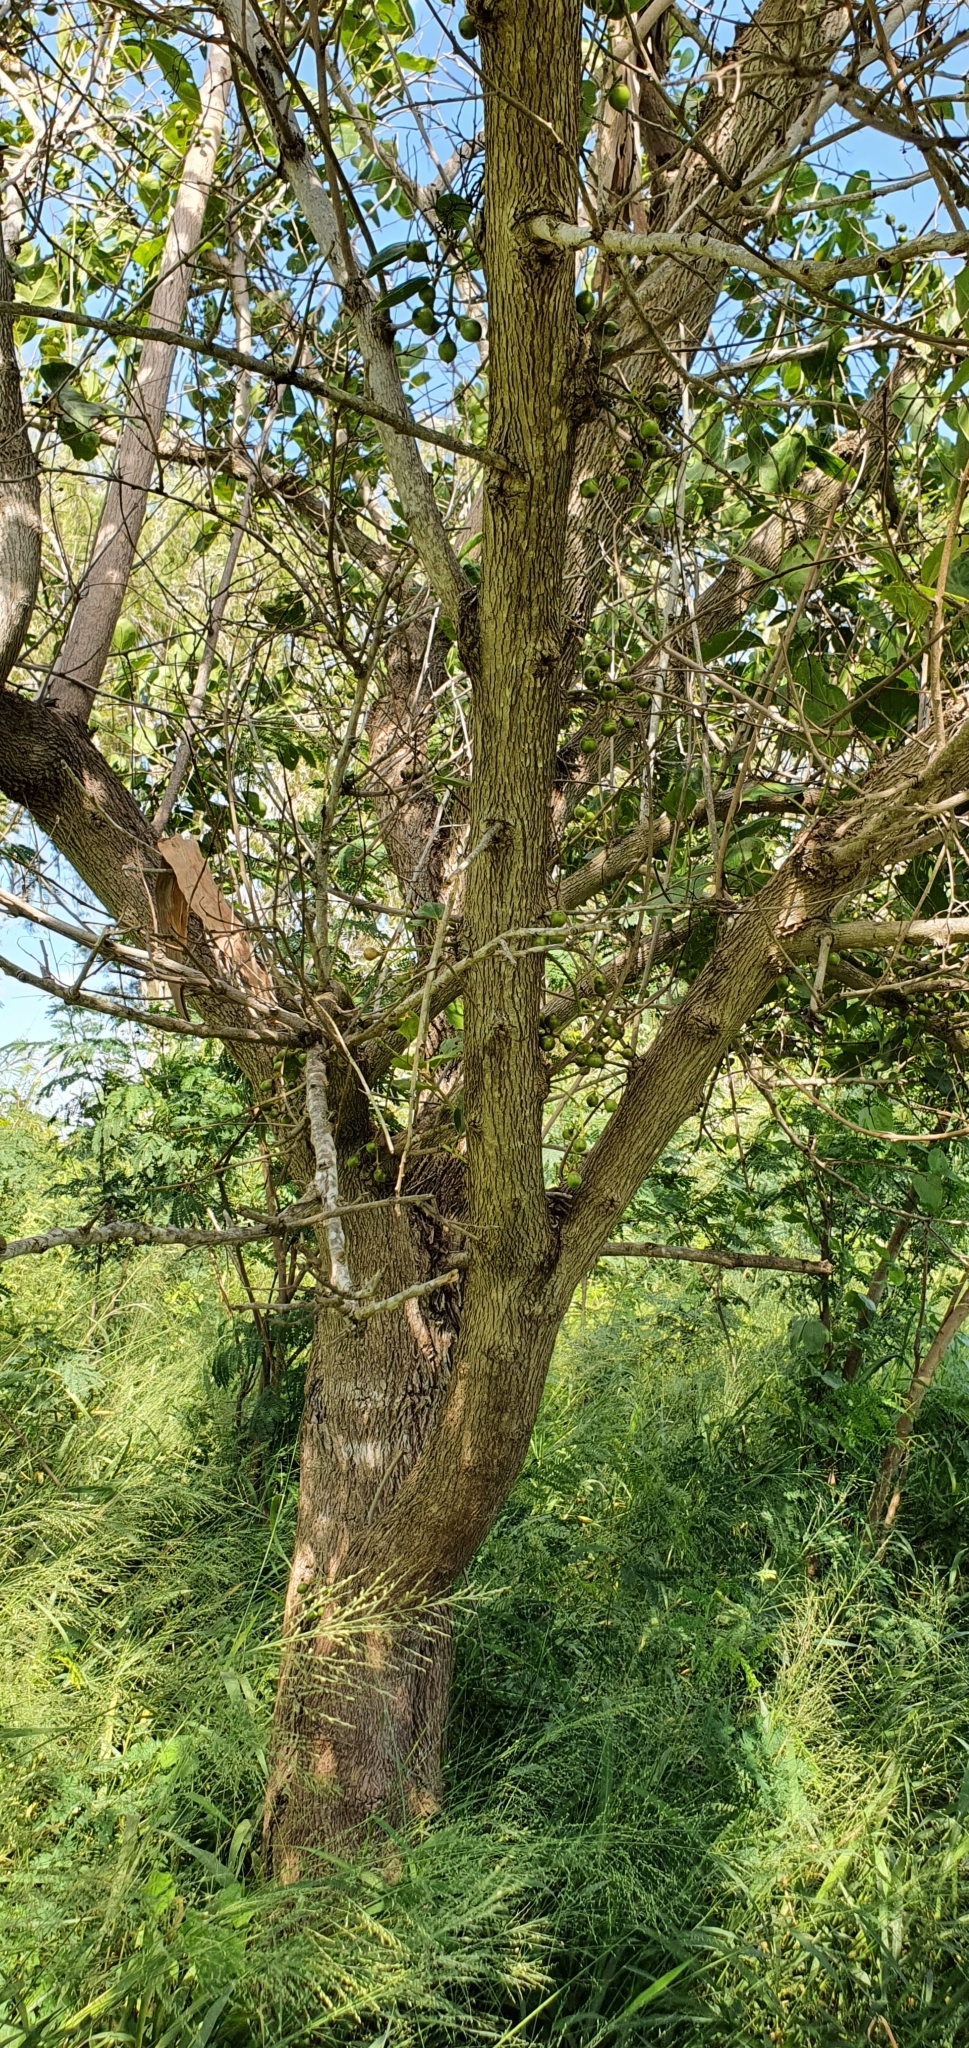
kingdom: Plantae
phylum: Tracheophyta
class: Magnoliopsida
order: Boraginales
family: Cordiaceae
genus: Cordia
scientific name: Cordia dichotoma
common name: Fragrant manjack
